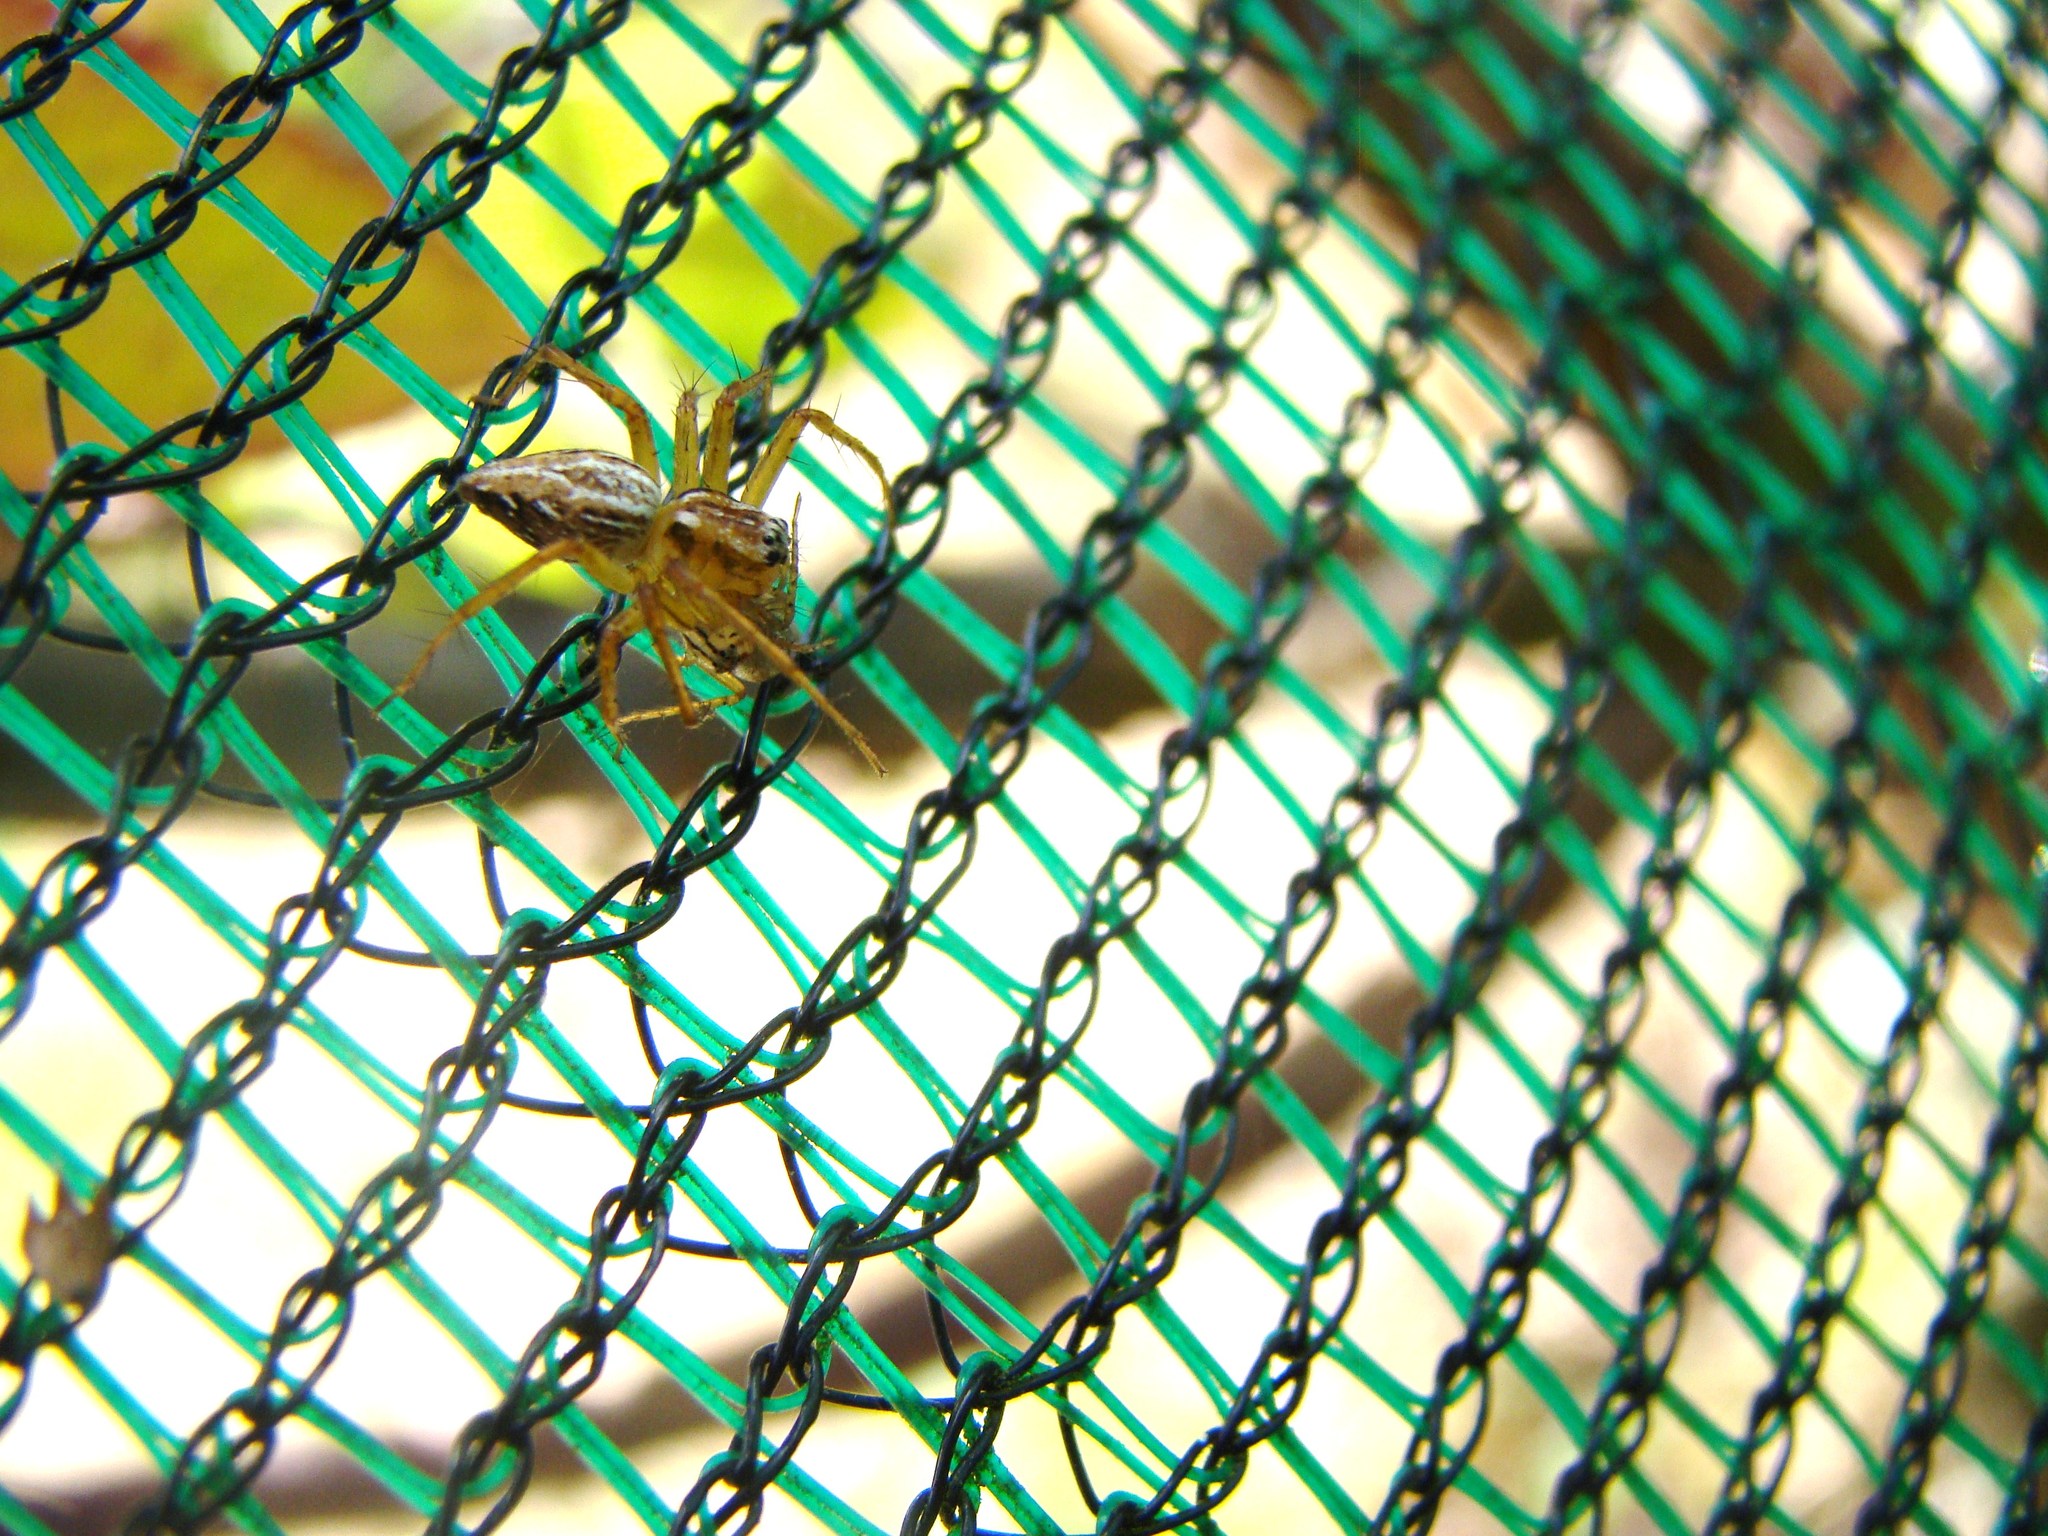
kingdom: Animalia
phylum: Arthropoda
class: Arachnida
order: Araneae
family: Oxyopidae
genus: Oxyopes
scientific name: Oxyopes gracilipes
